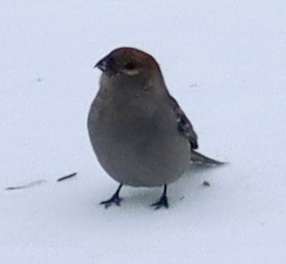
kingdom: Animalia
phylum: Chordata
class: Aves
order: Passeriformes
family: Fringillidae
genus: Pinicola
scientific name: Pinicola enucleator
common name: Pine grosbeak
